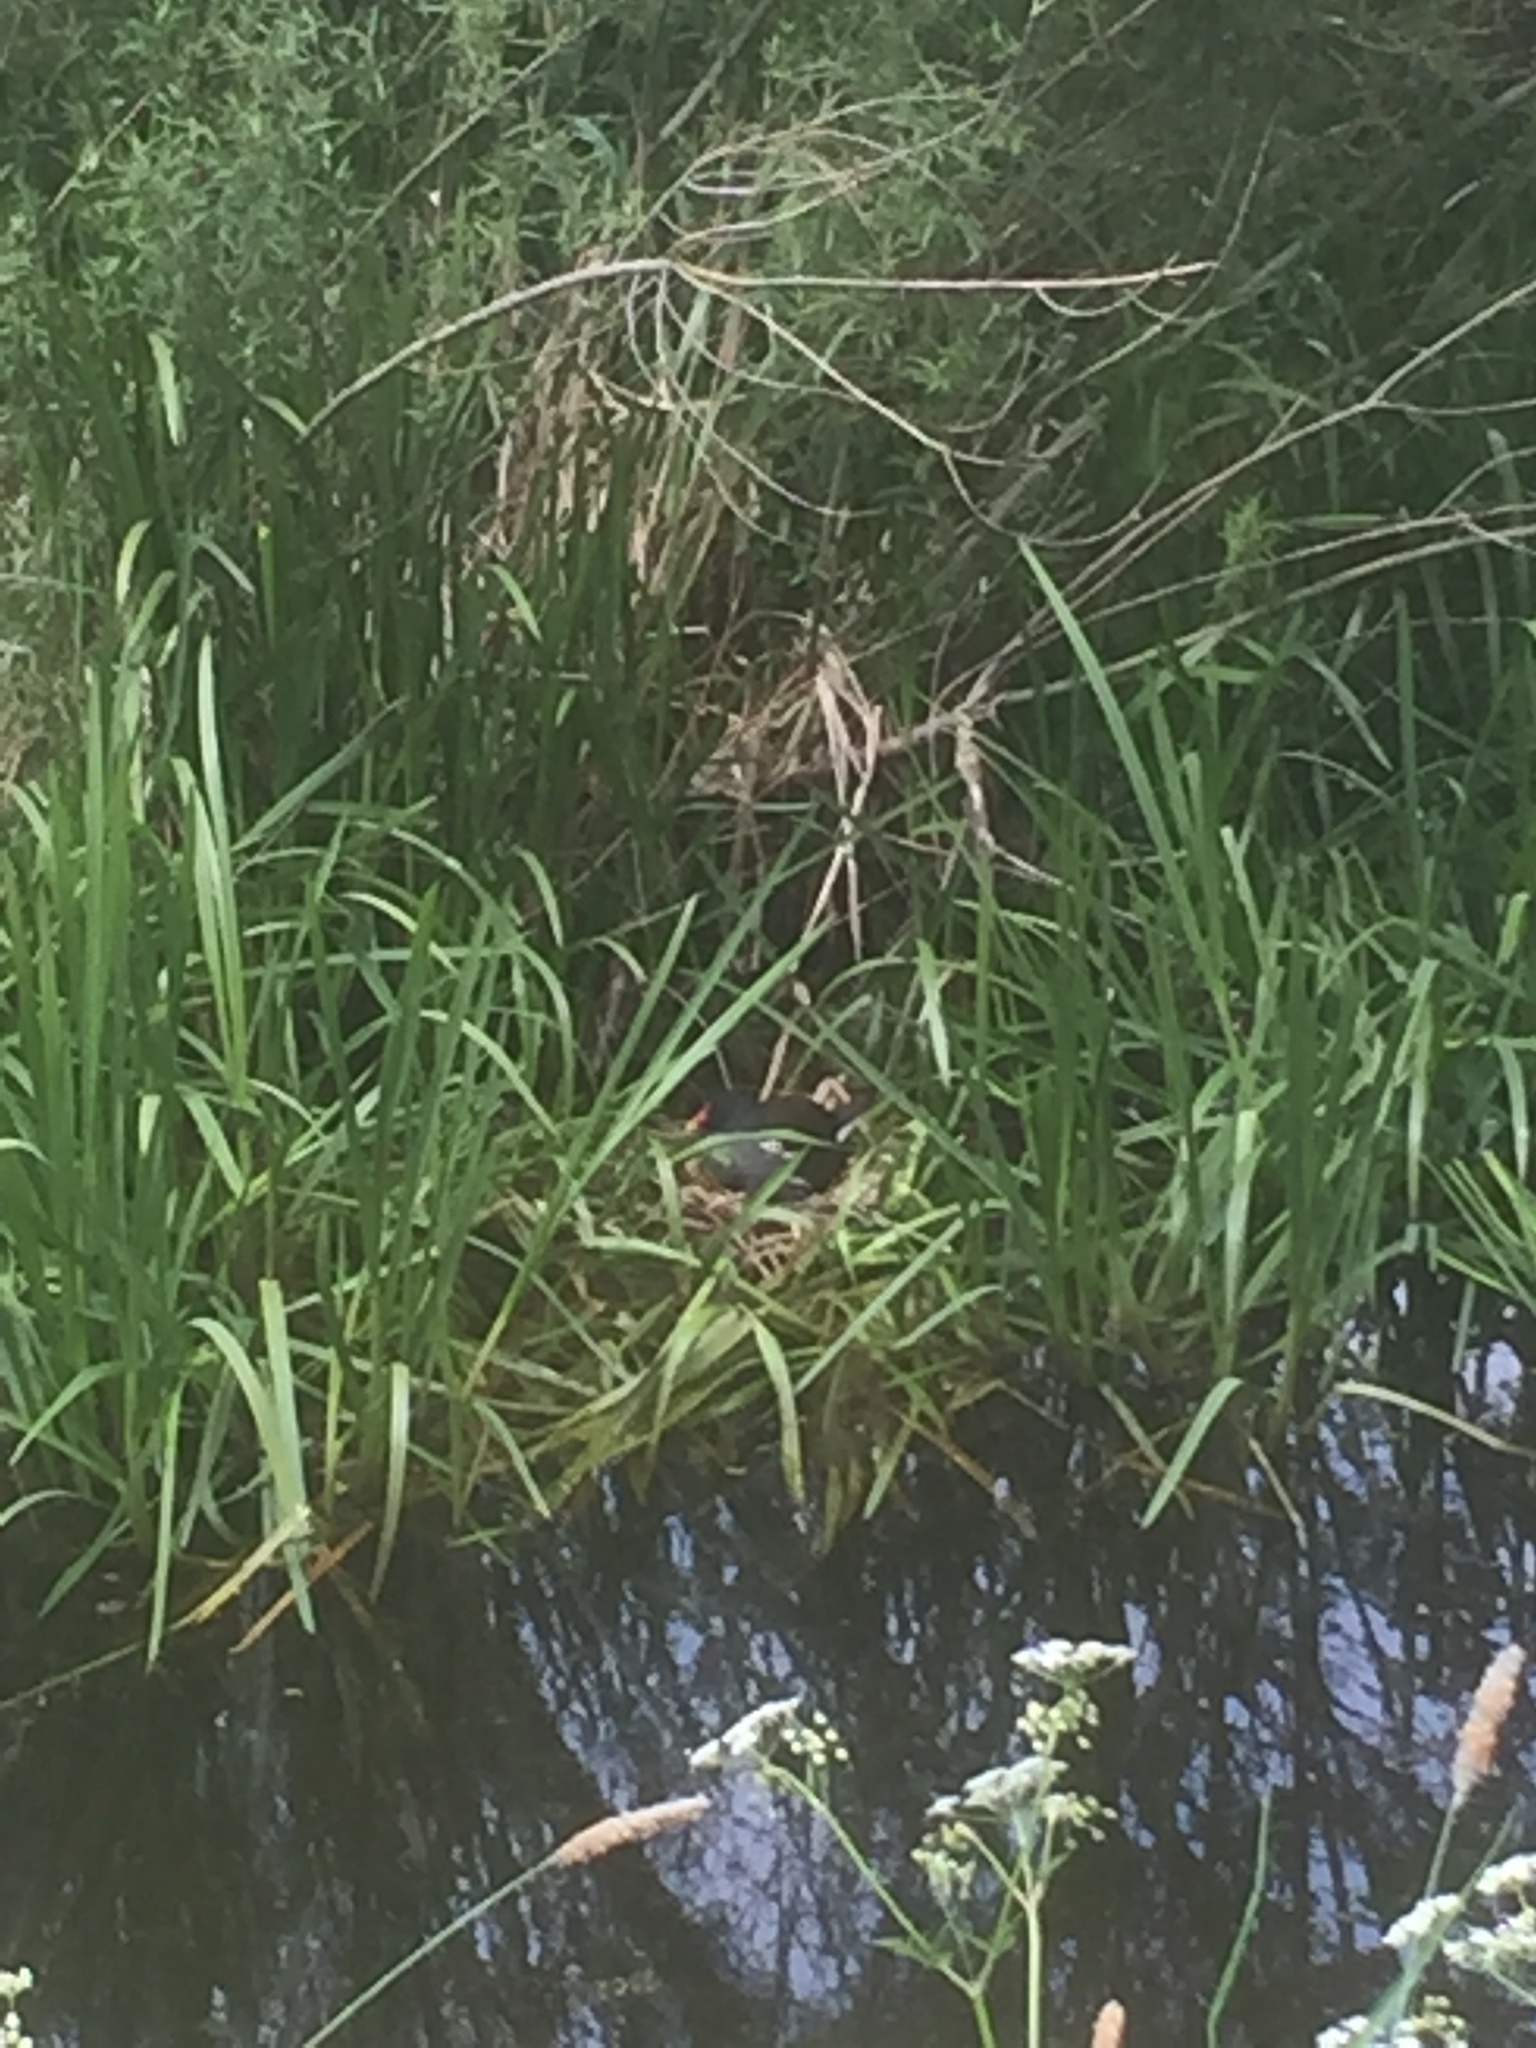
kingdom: Animalia
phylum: Chordata
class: Aves
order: Gruiformes
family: Rallidae
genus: Gallinula
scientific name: Gallinula chloropus
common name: Common moorhen
